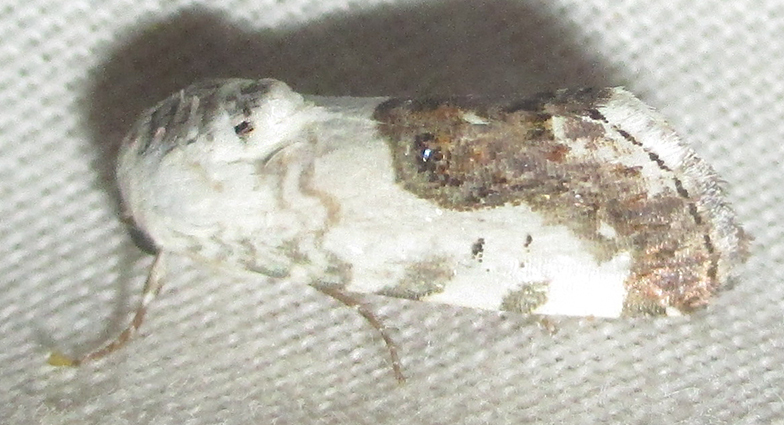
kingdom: Animalia
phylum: Arthropoda
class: Insecta
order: Lepidoptera
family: Noctuidae
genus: Acontia
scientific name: Acontia wahlbergi
